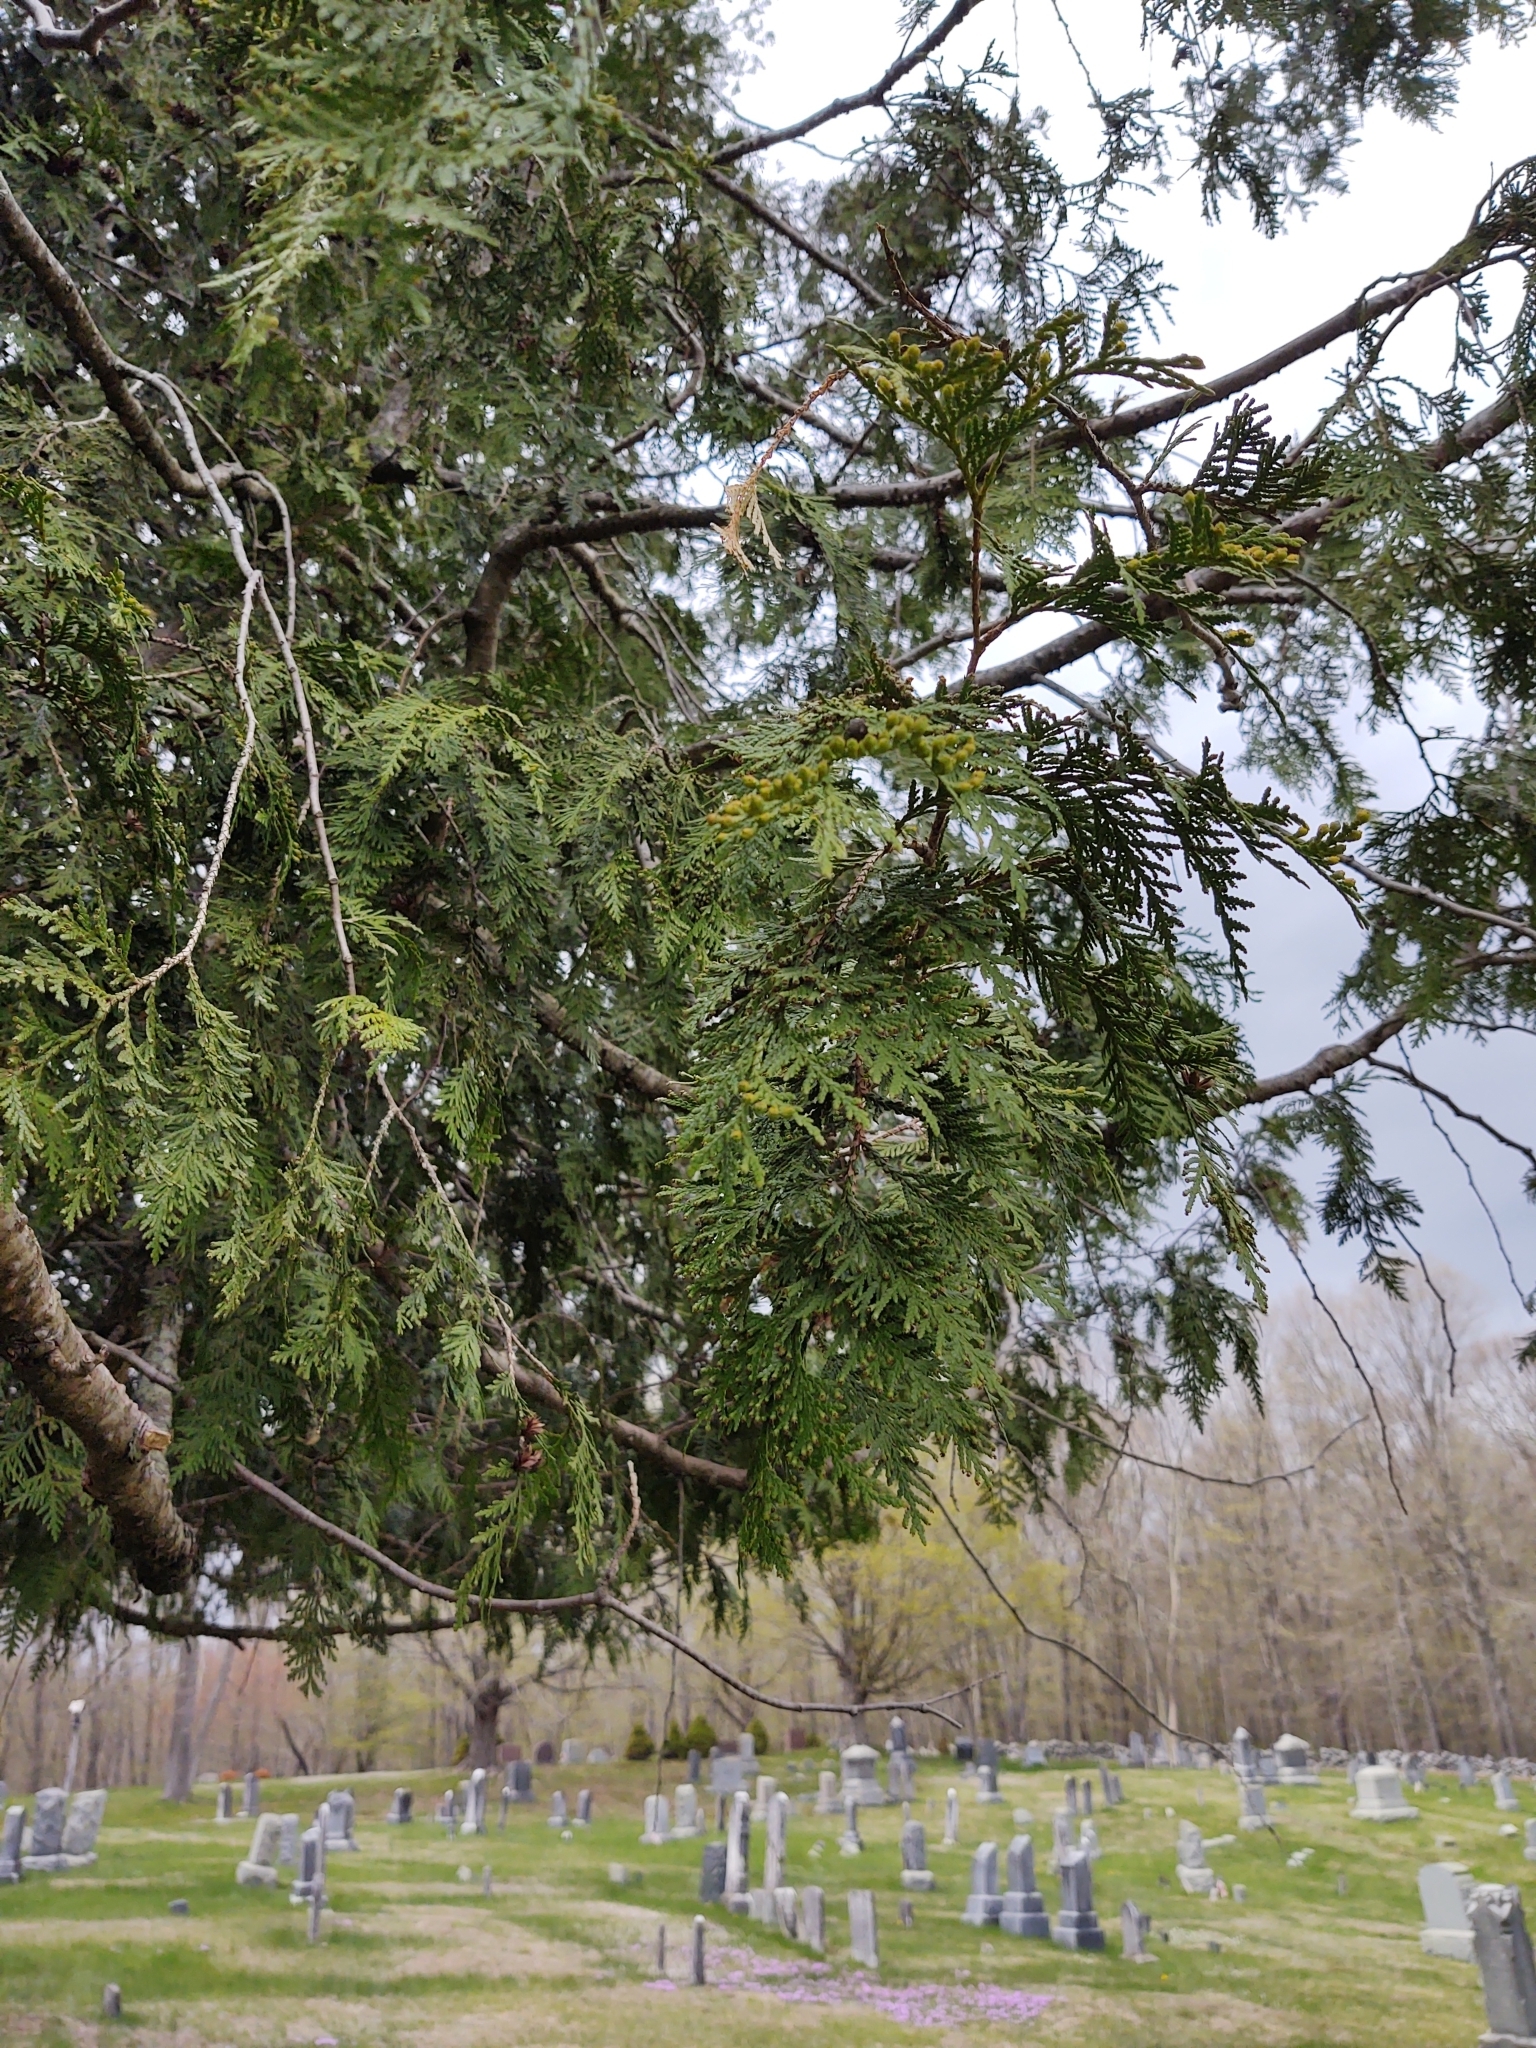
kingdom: Plantae
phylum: Tracheophyta
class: Pinopsida
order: Pinales
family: Cupressaceae
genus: Thuja
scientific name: Thuja occidentalis
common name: Northern white-cedar
